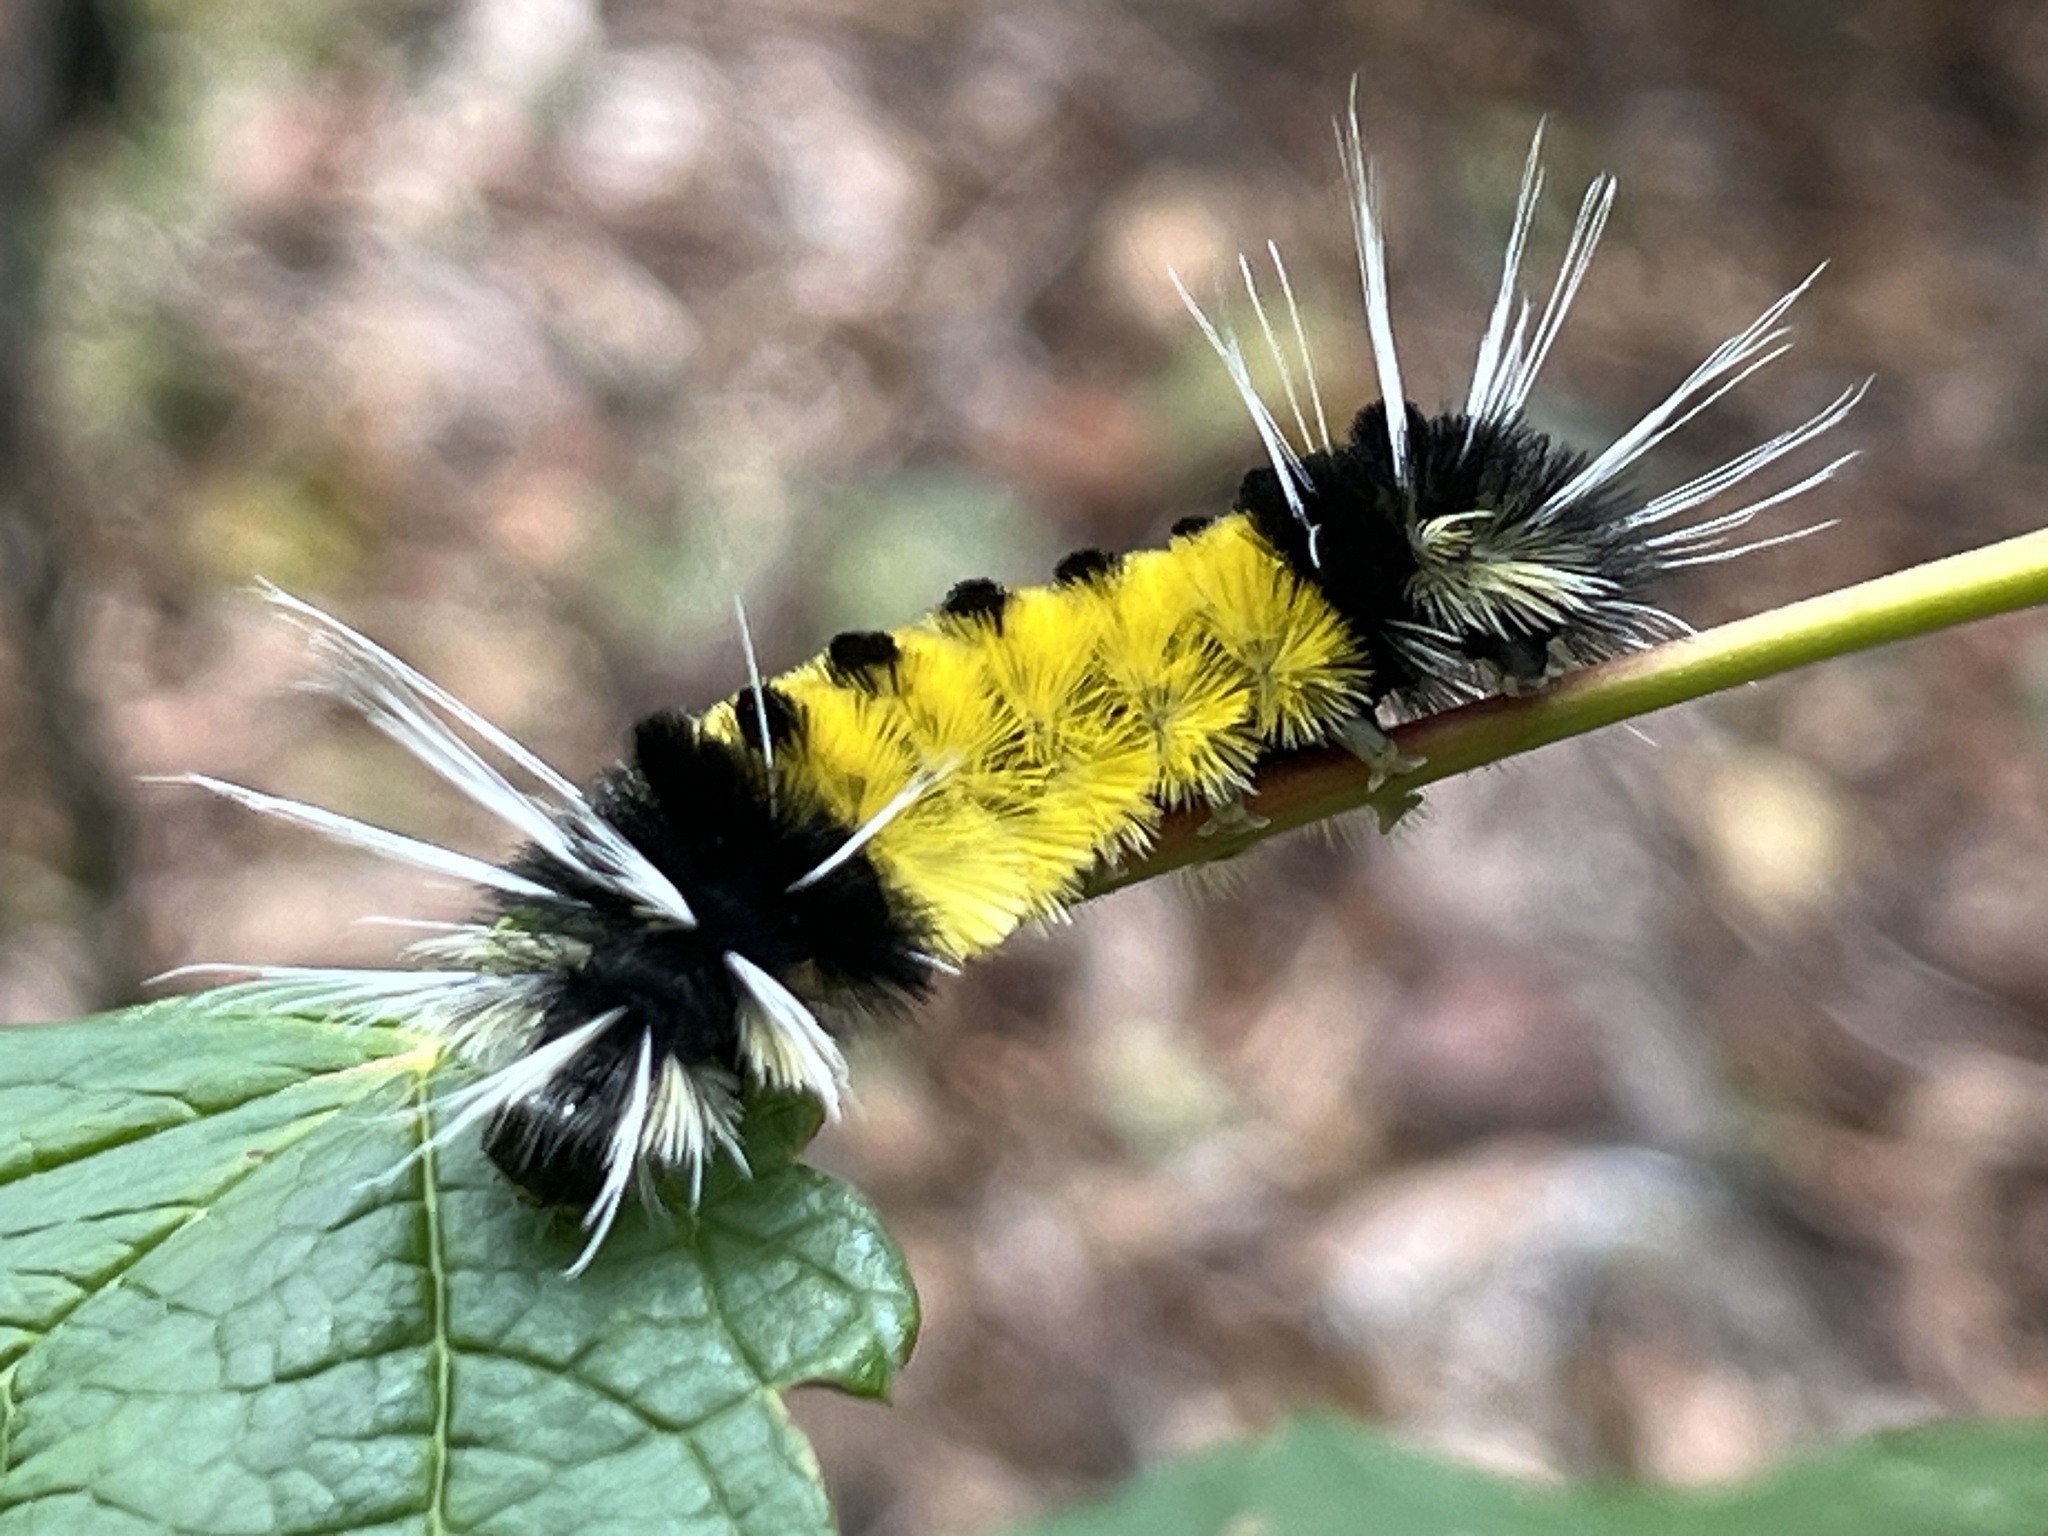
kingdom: Animalia
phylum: Arthropoda
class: Insecta
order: Lepidoptera
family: Erebidae
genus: Lophocampa
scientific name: Lophocampa maculata
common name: Spotted tussock moth
